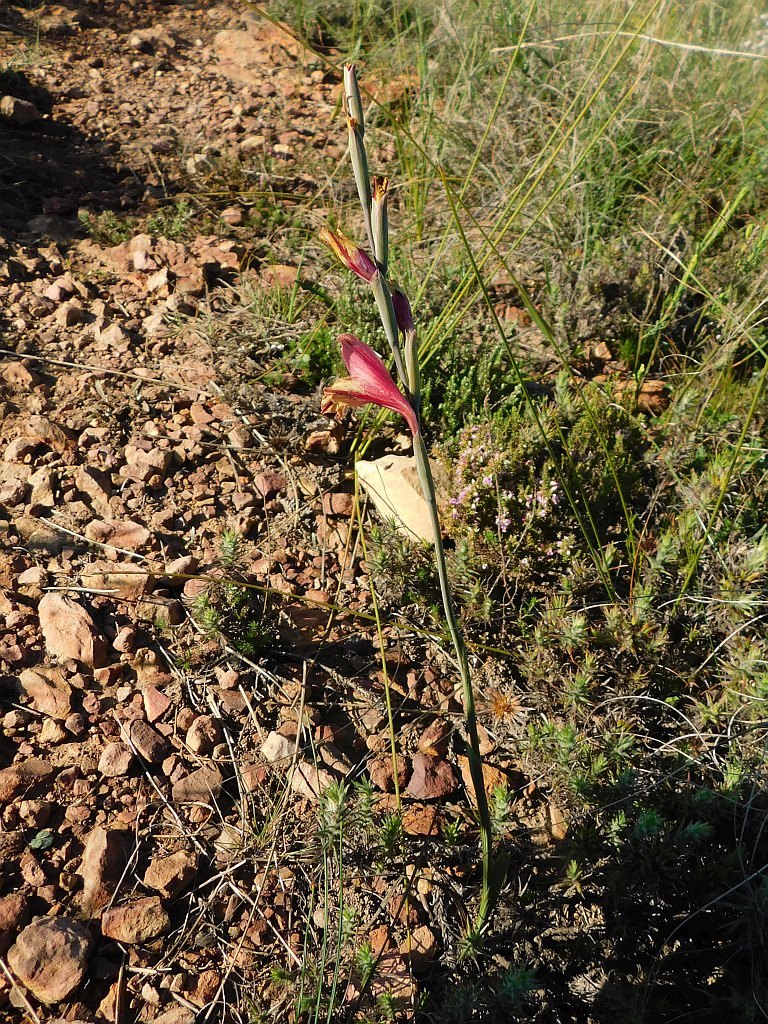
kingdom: Plantae
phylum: Tracheophyta
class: Liliopsida
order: Asparagales
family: Iridaceae
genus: Gladiolus
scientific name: Gladiolus guthriei
